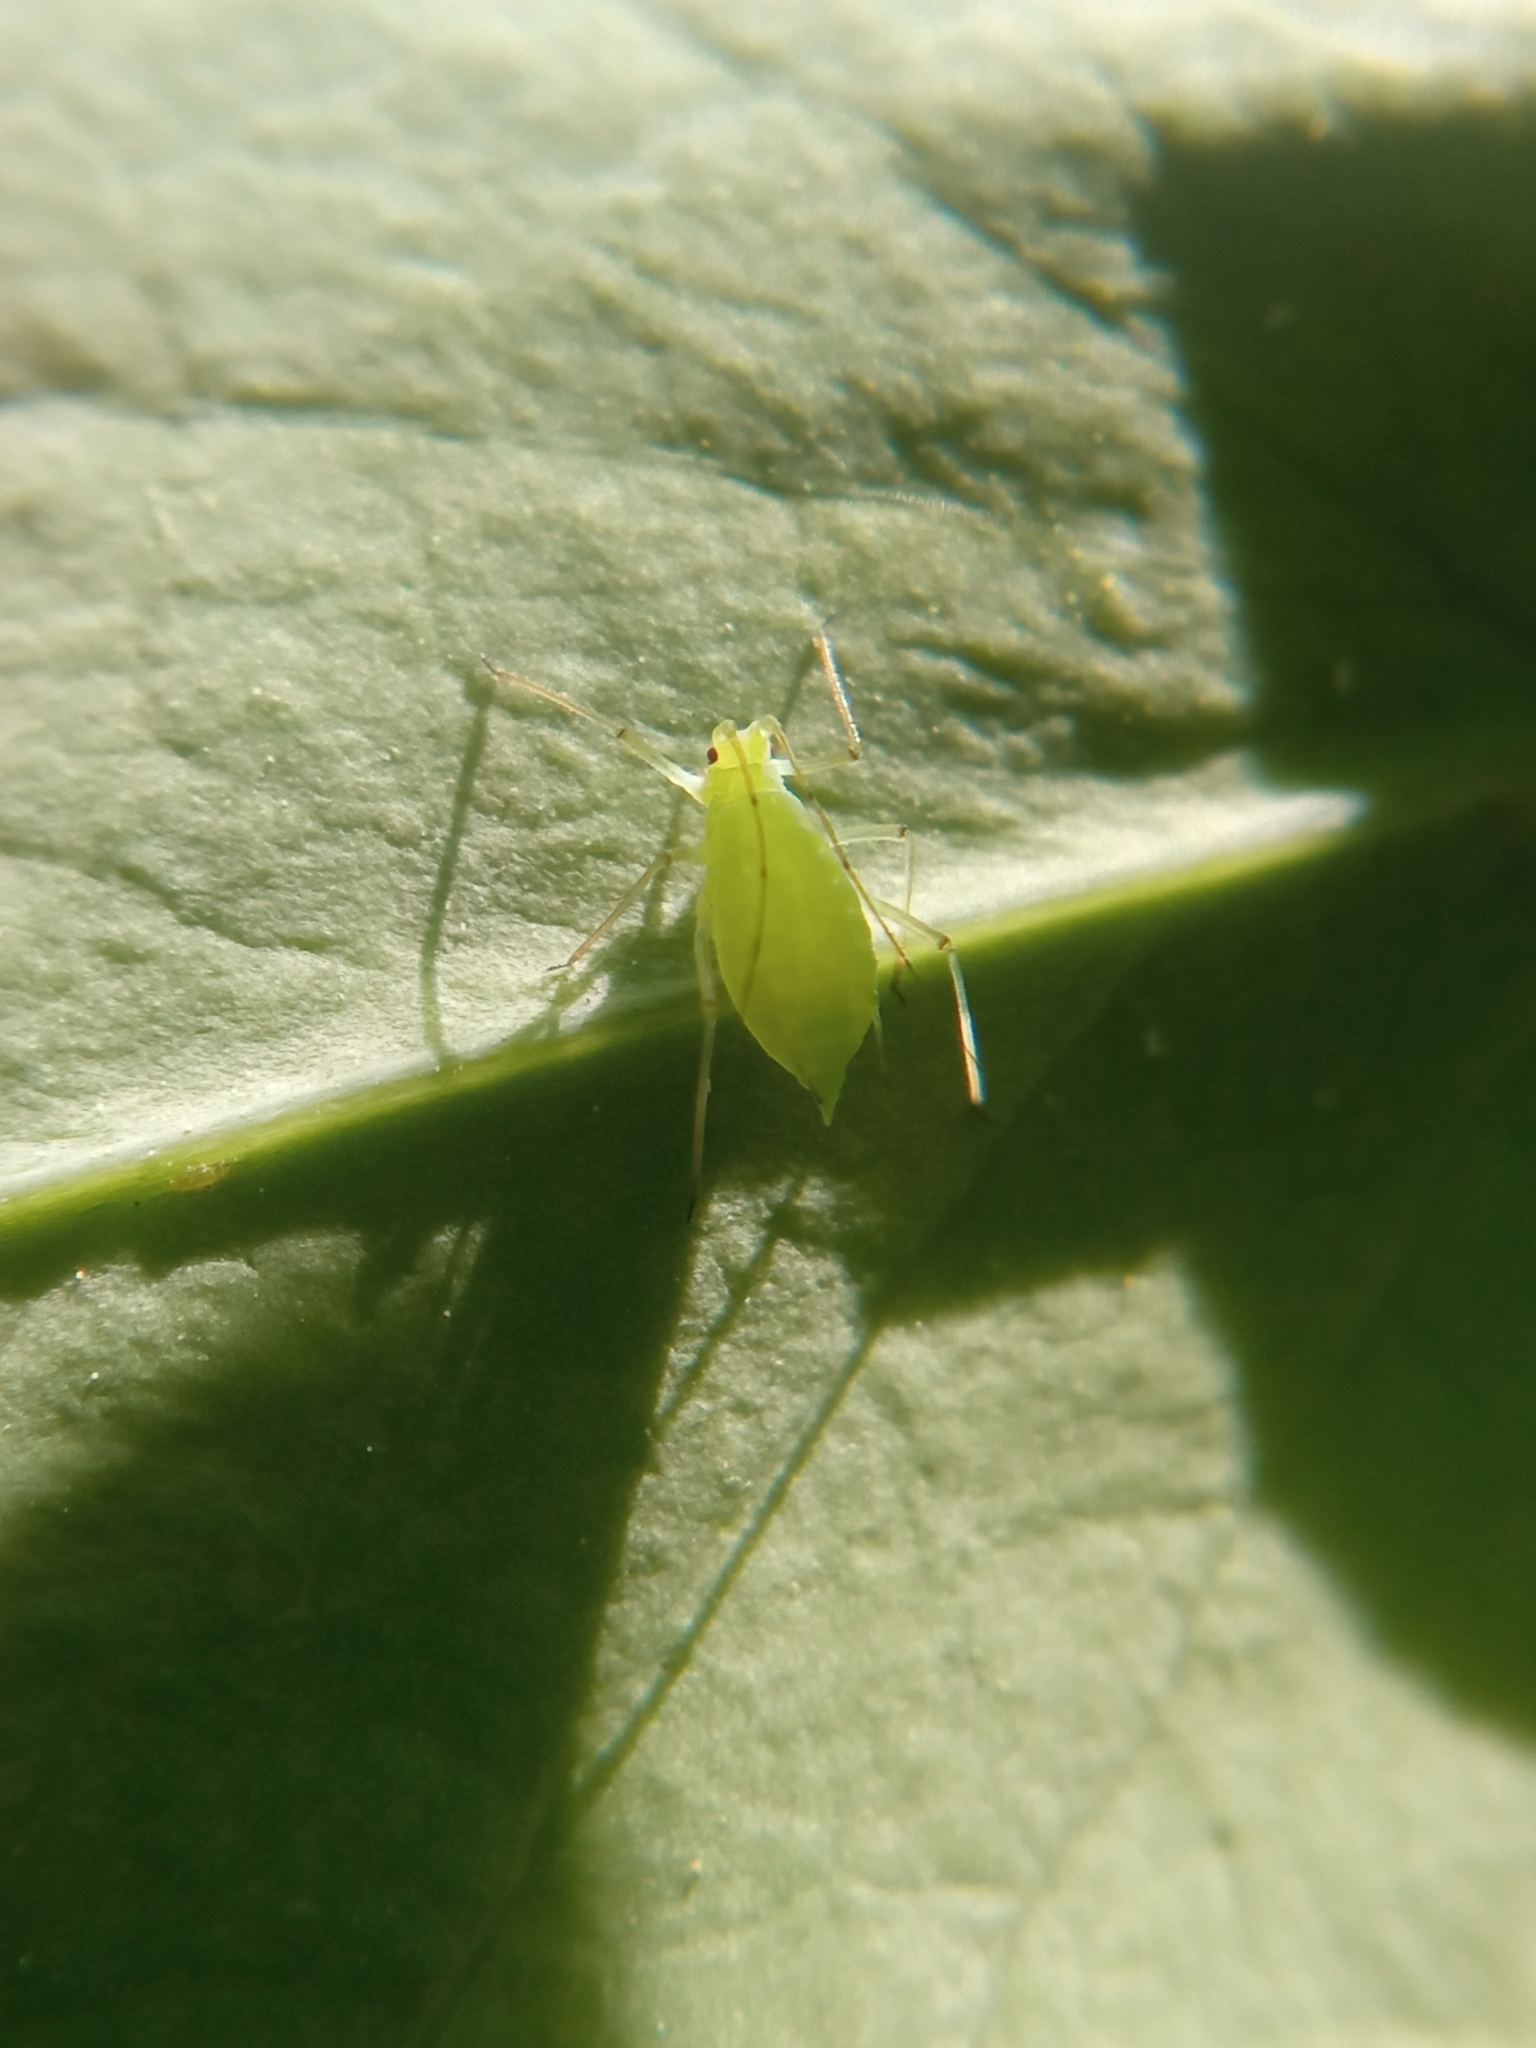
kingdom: Animalia
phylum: Arthropoda
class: Insecta
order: Hemiptera
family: Aphididae
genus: Acyrthosiphon
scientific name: Acyrthosiphon pisum
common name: Pea aphid
